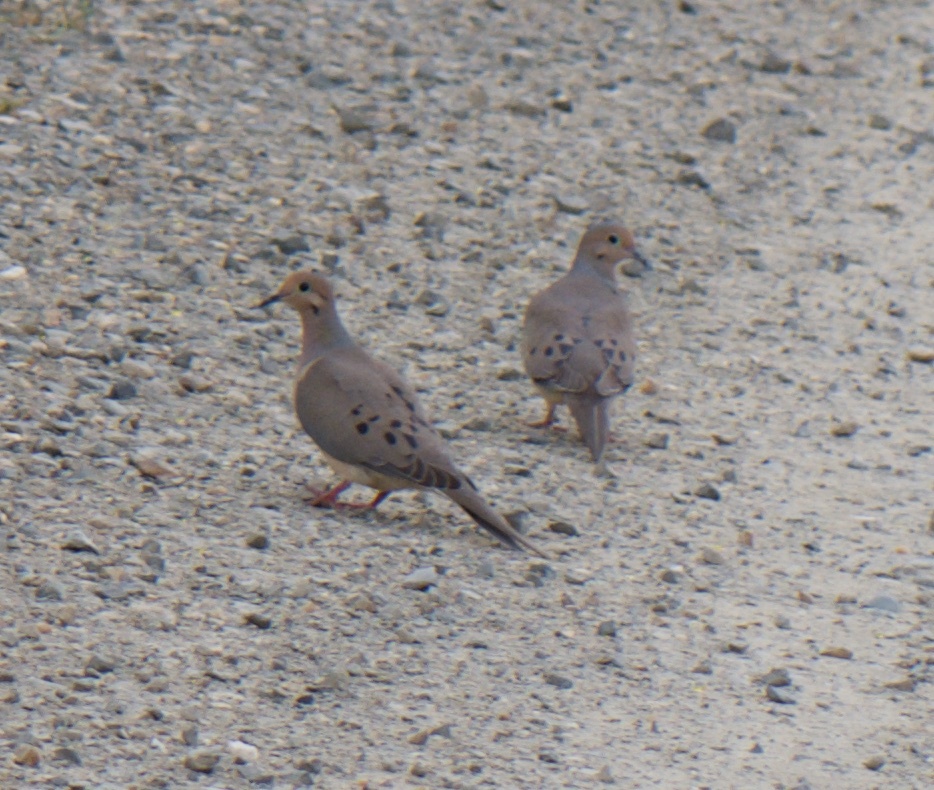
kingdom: Animalia
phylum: Chordata
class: Aves
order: Columbiformes
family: Columbidae
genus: Zenaida
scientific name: Zenaida macroura
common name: Mourning dove
